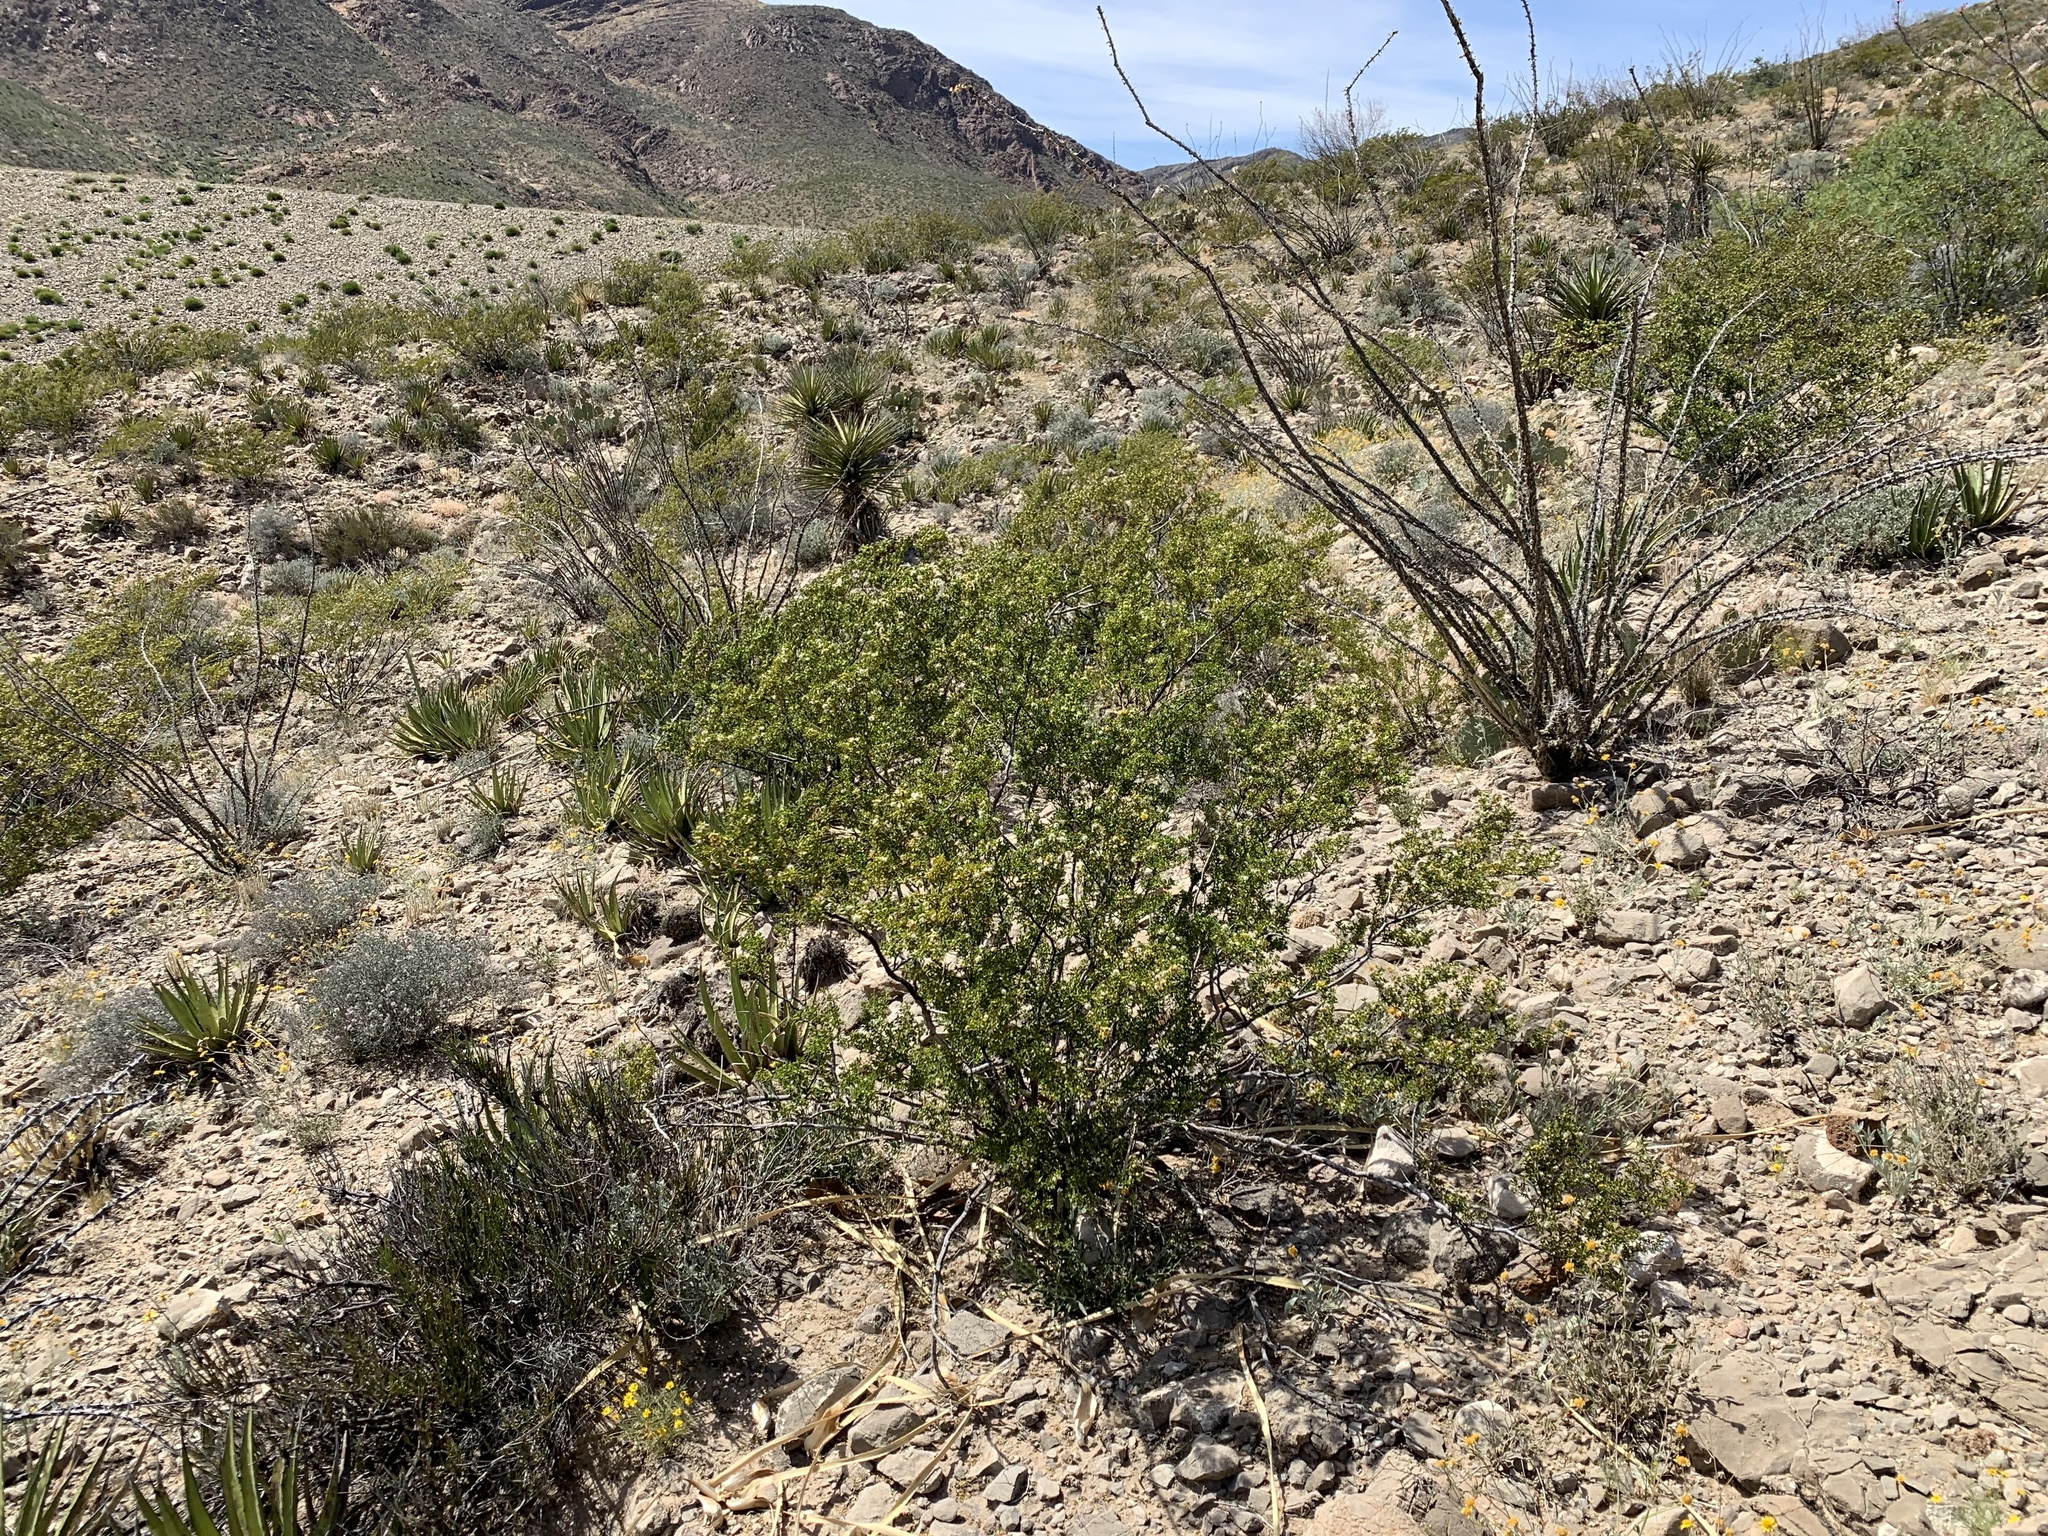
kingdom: Plantae
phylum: Tracheophyta
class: Magnoliopsida
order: Zygophyllales
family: Zygophyllaceae
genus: Larrea
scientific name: Larrea tridentata
